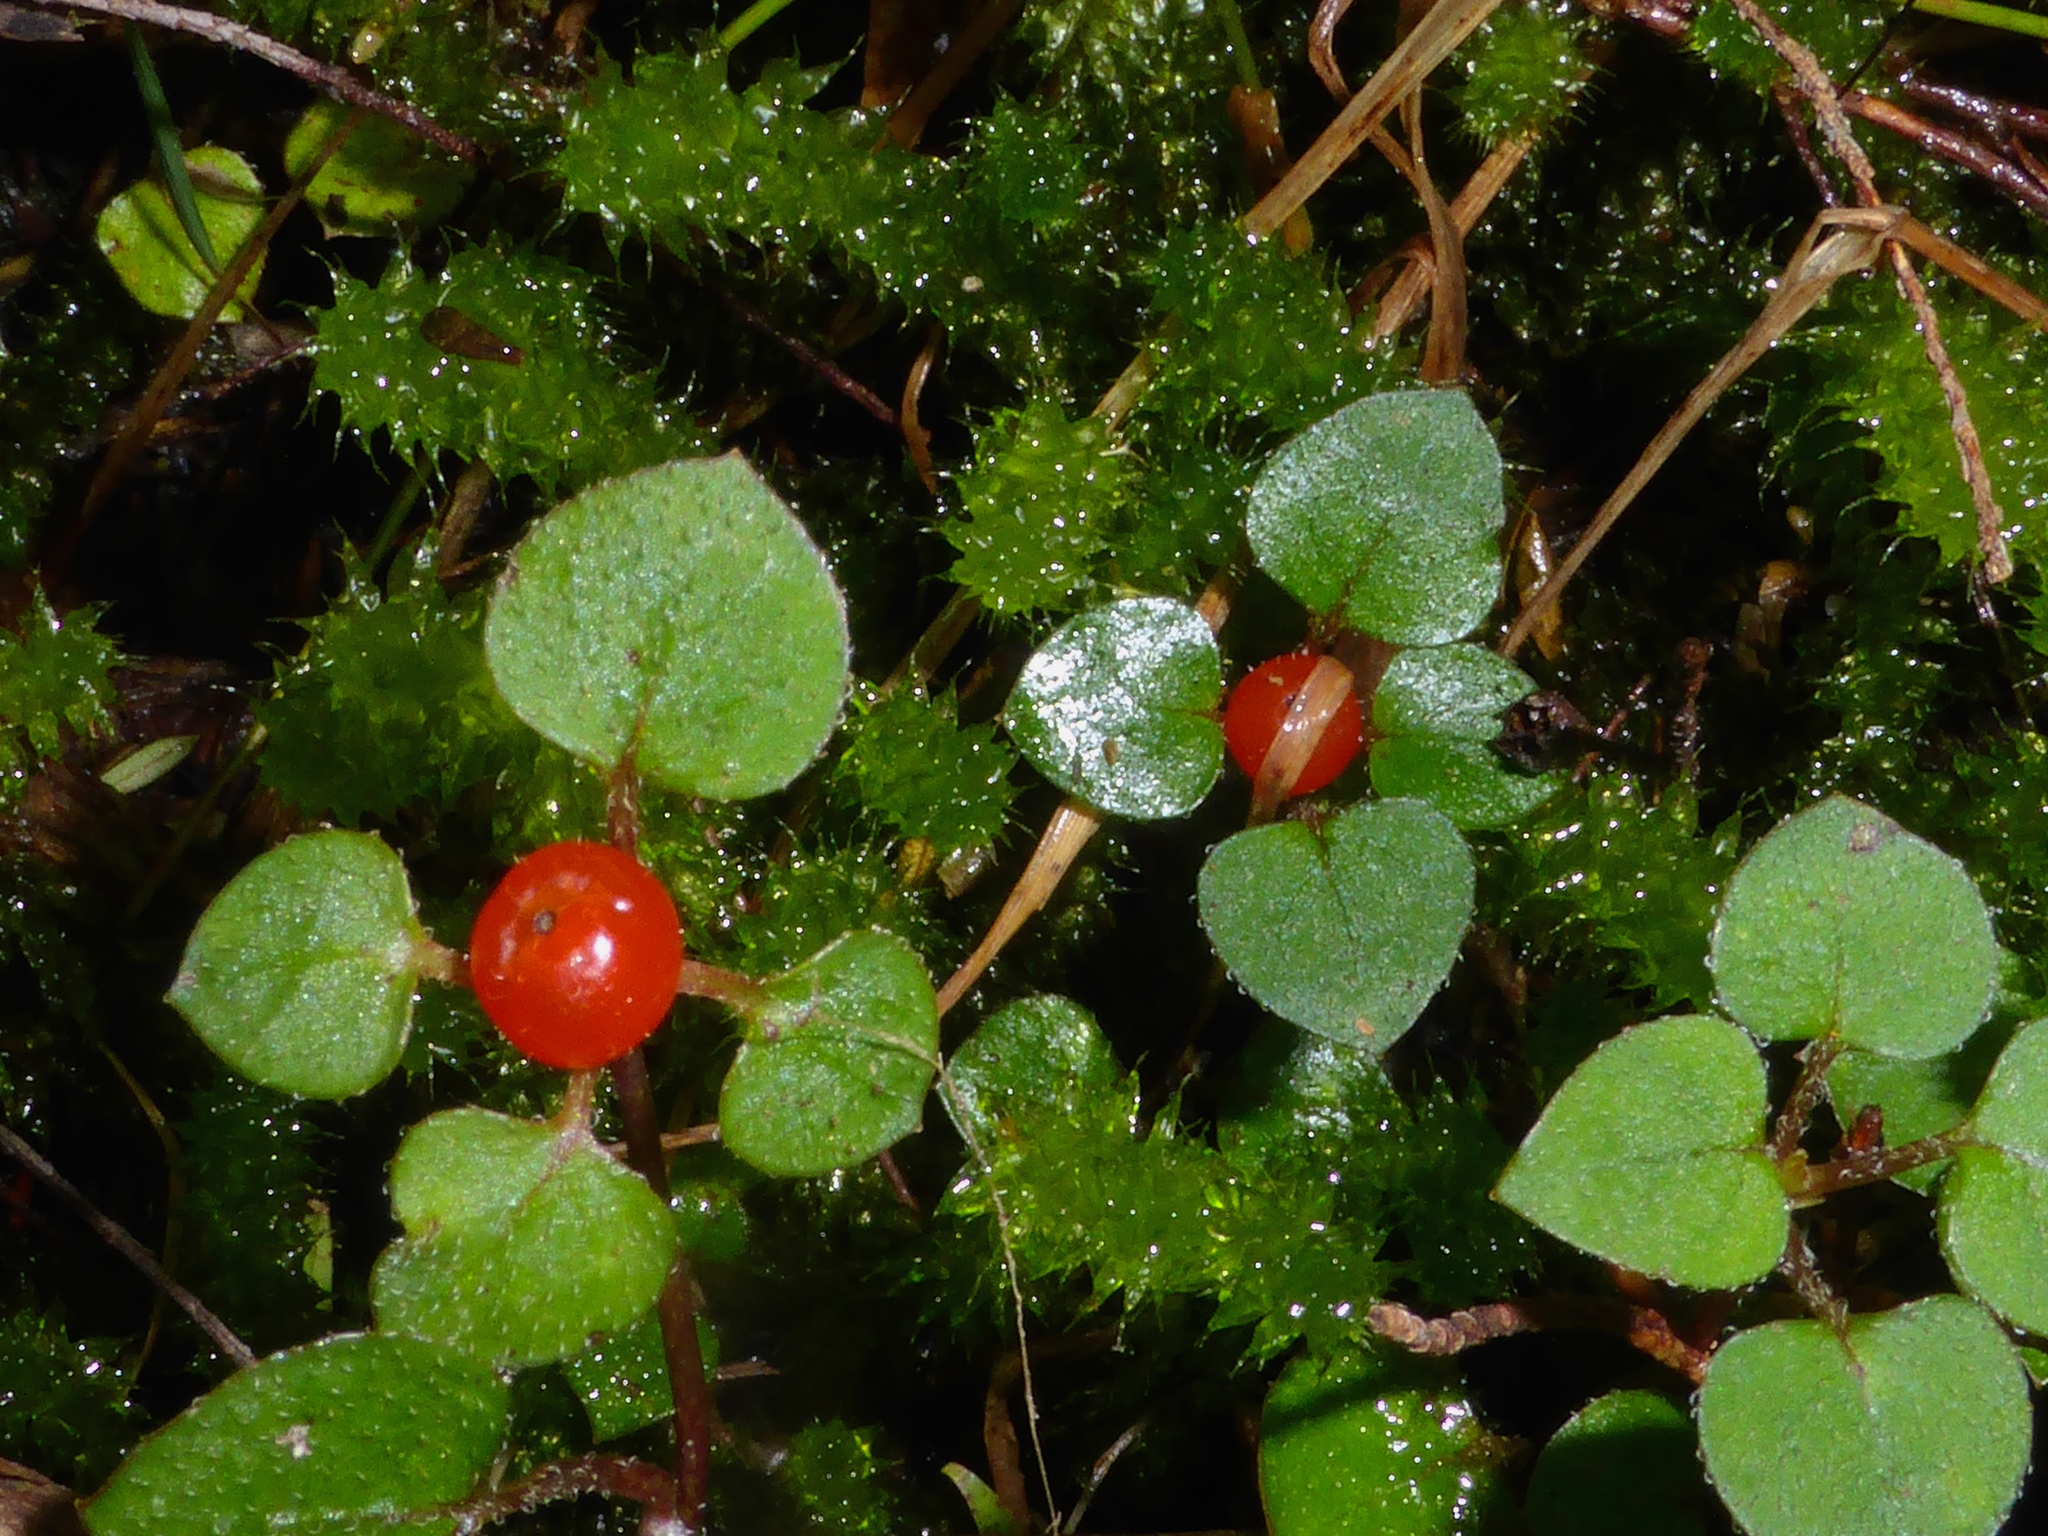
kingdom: Plantae
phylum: Tracheophyta
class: Magnoliopsida
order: Gentianales
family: Rubiaceae
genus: Nertera
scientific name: Nertera dichondrifolia
